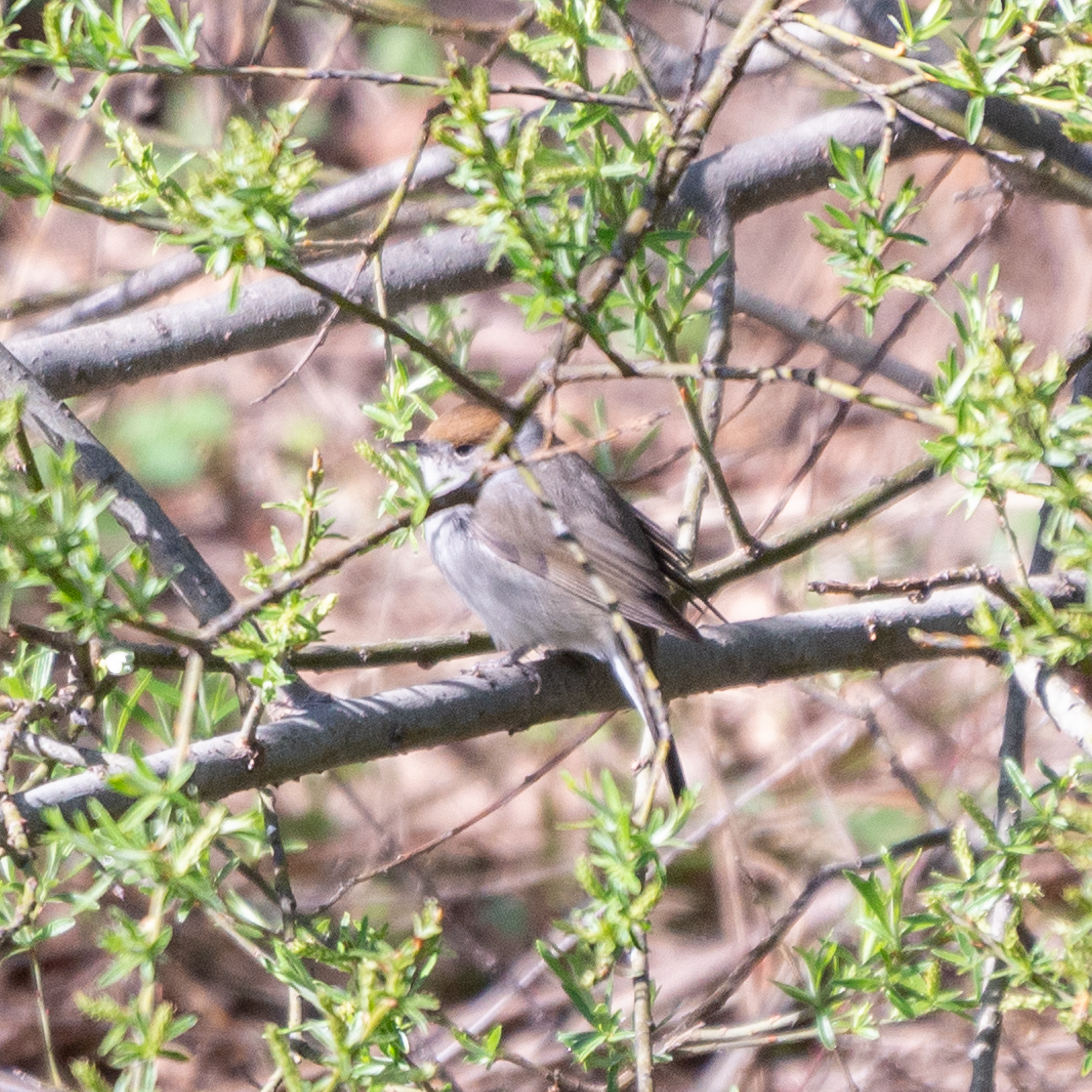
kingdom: Animalia
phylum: Chordata
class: Aves
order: Passeriformes
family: Sylviidae
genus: Sylvia
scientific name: Sylvia atricapilla
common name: Eurasian blackcap
